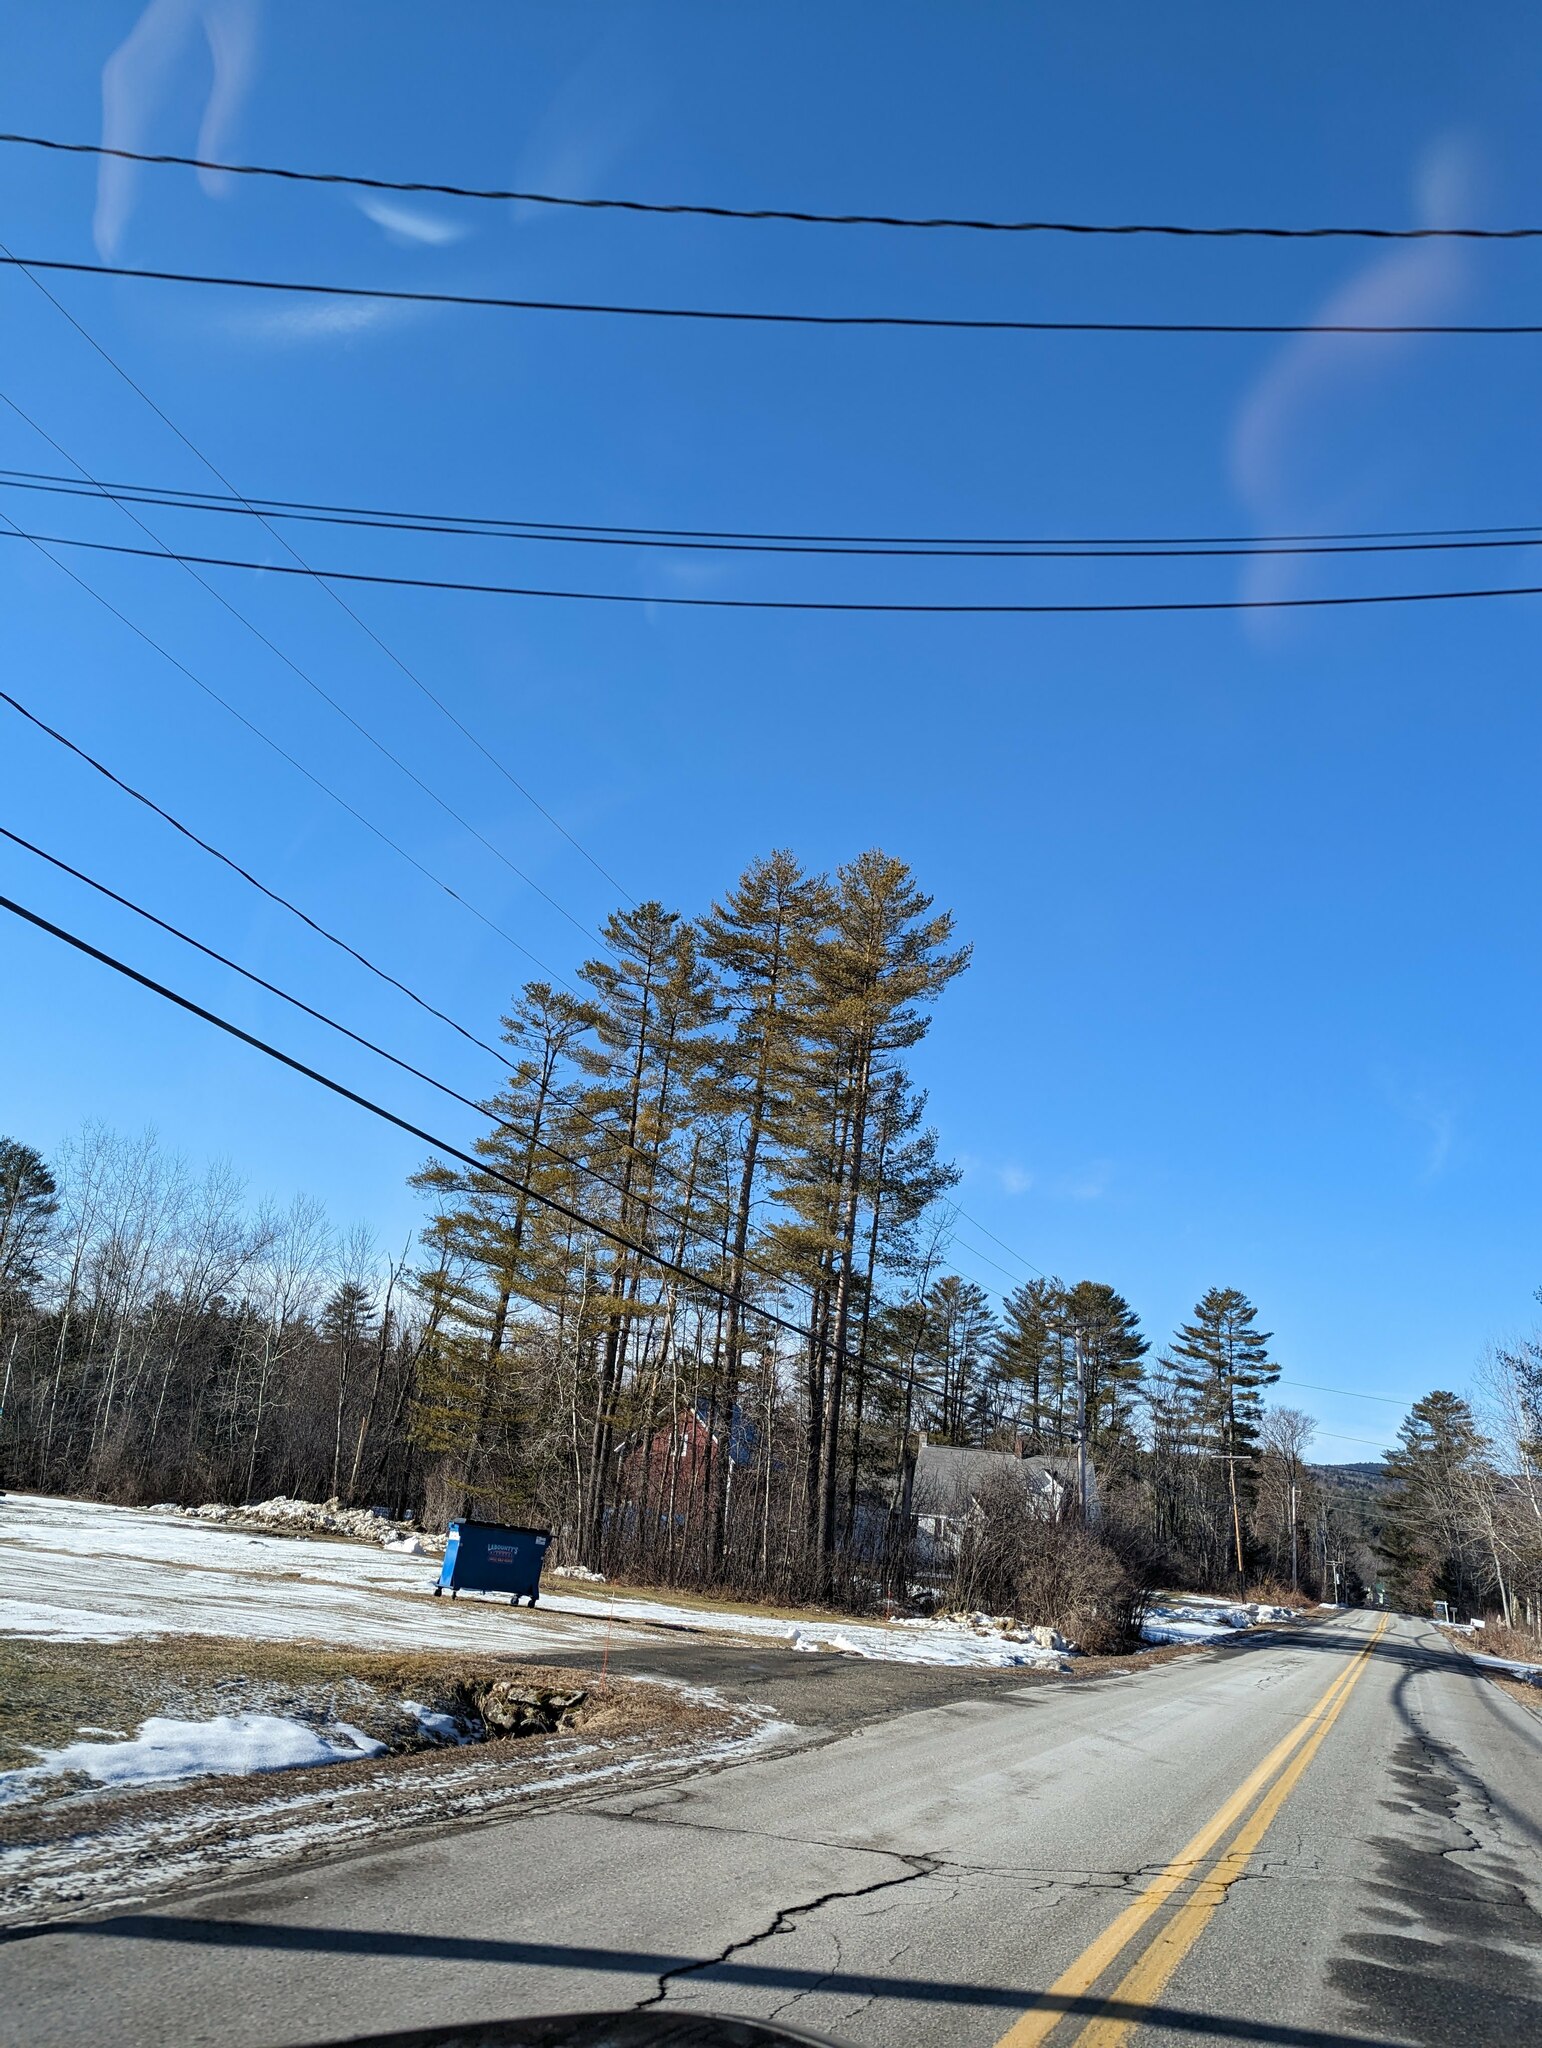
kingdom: Plantae
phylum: Tracheophyta
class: Pinopsida
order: Pinales
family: Pinaceae
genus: Pinus
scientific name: Pinus strobus
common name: Weymouth pine
